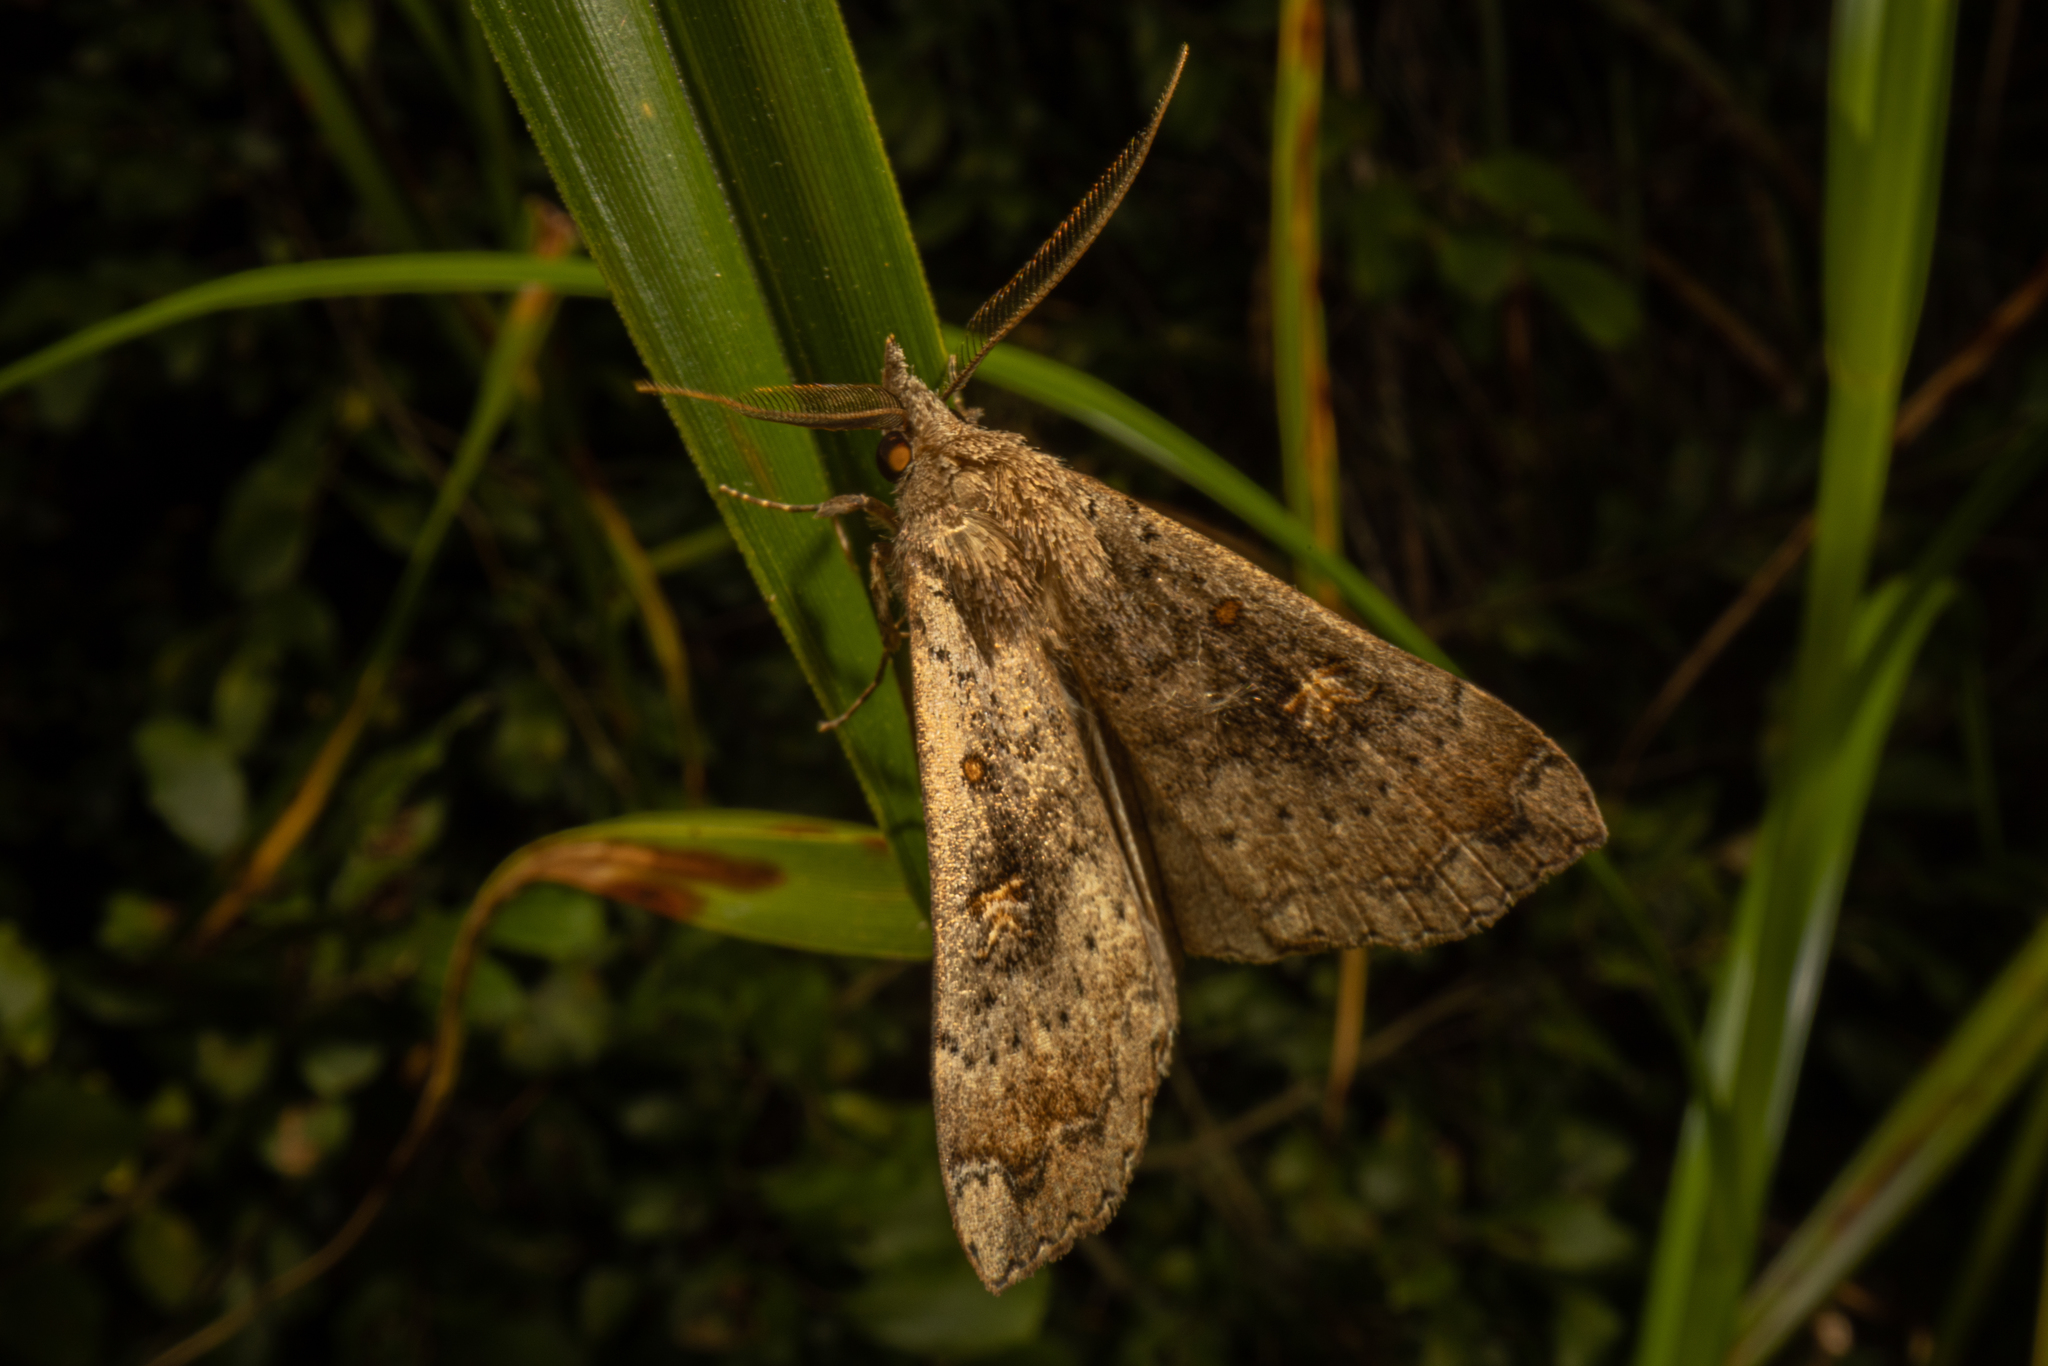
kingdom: Animalia
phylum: Arthropoda
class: Insecta
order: Lepidoptera
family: Erebidae
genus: Rhapsa
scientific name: Rhapsa scotosialis
